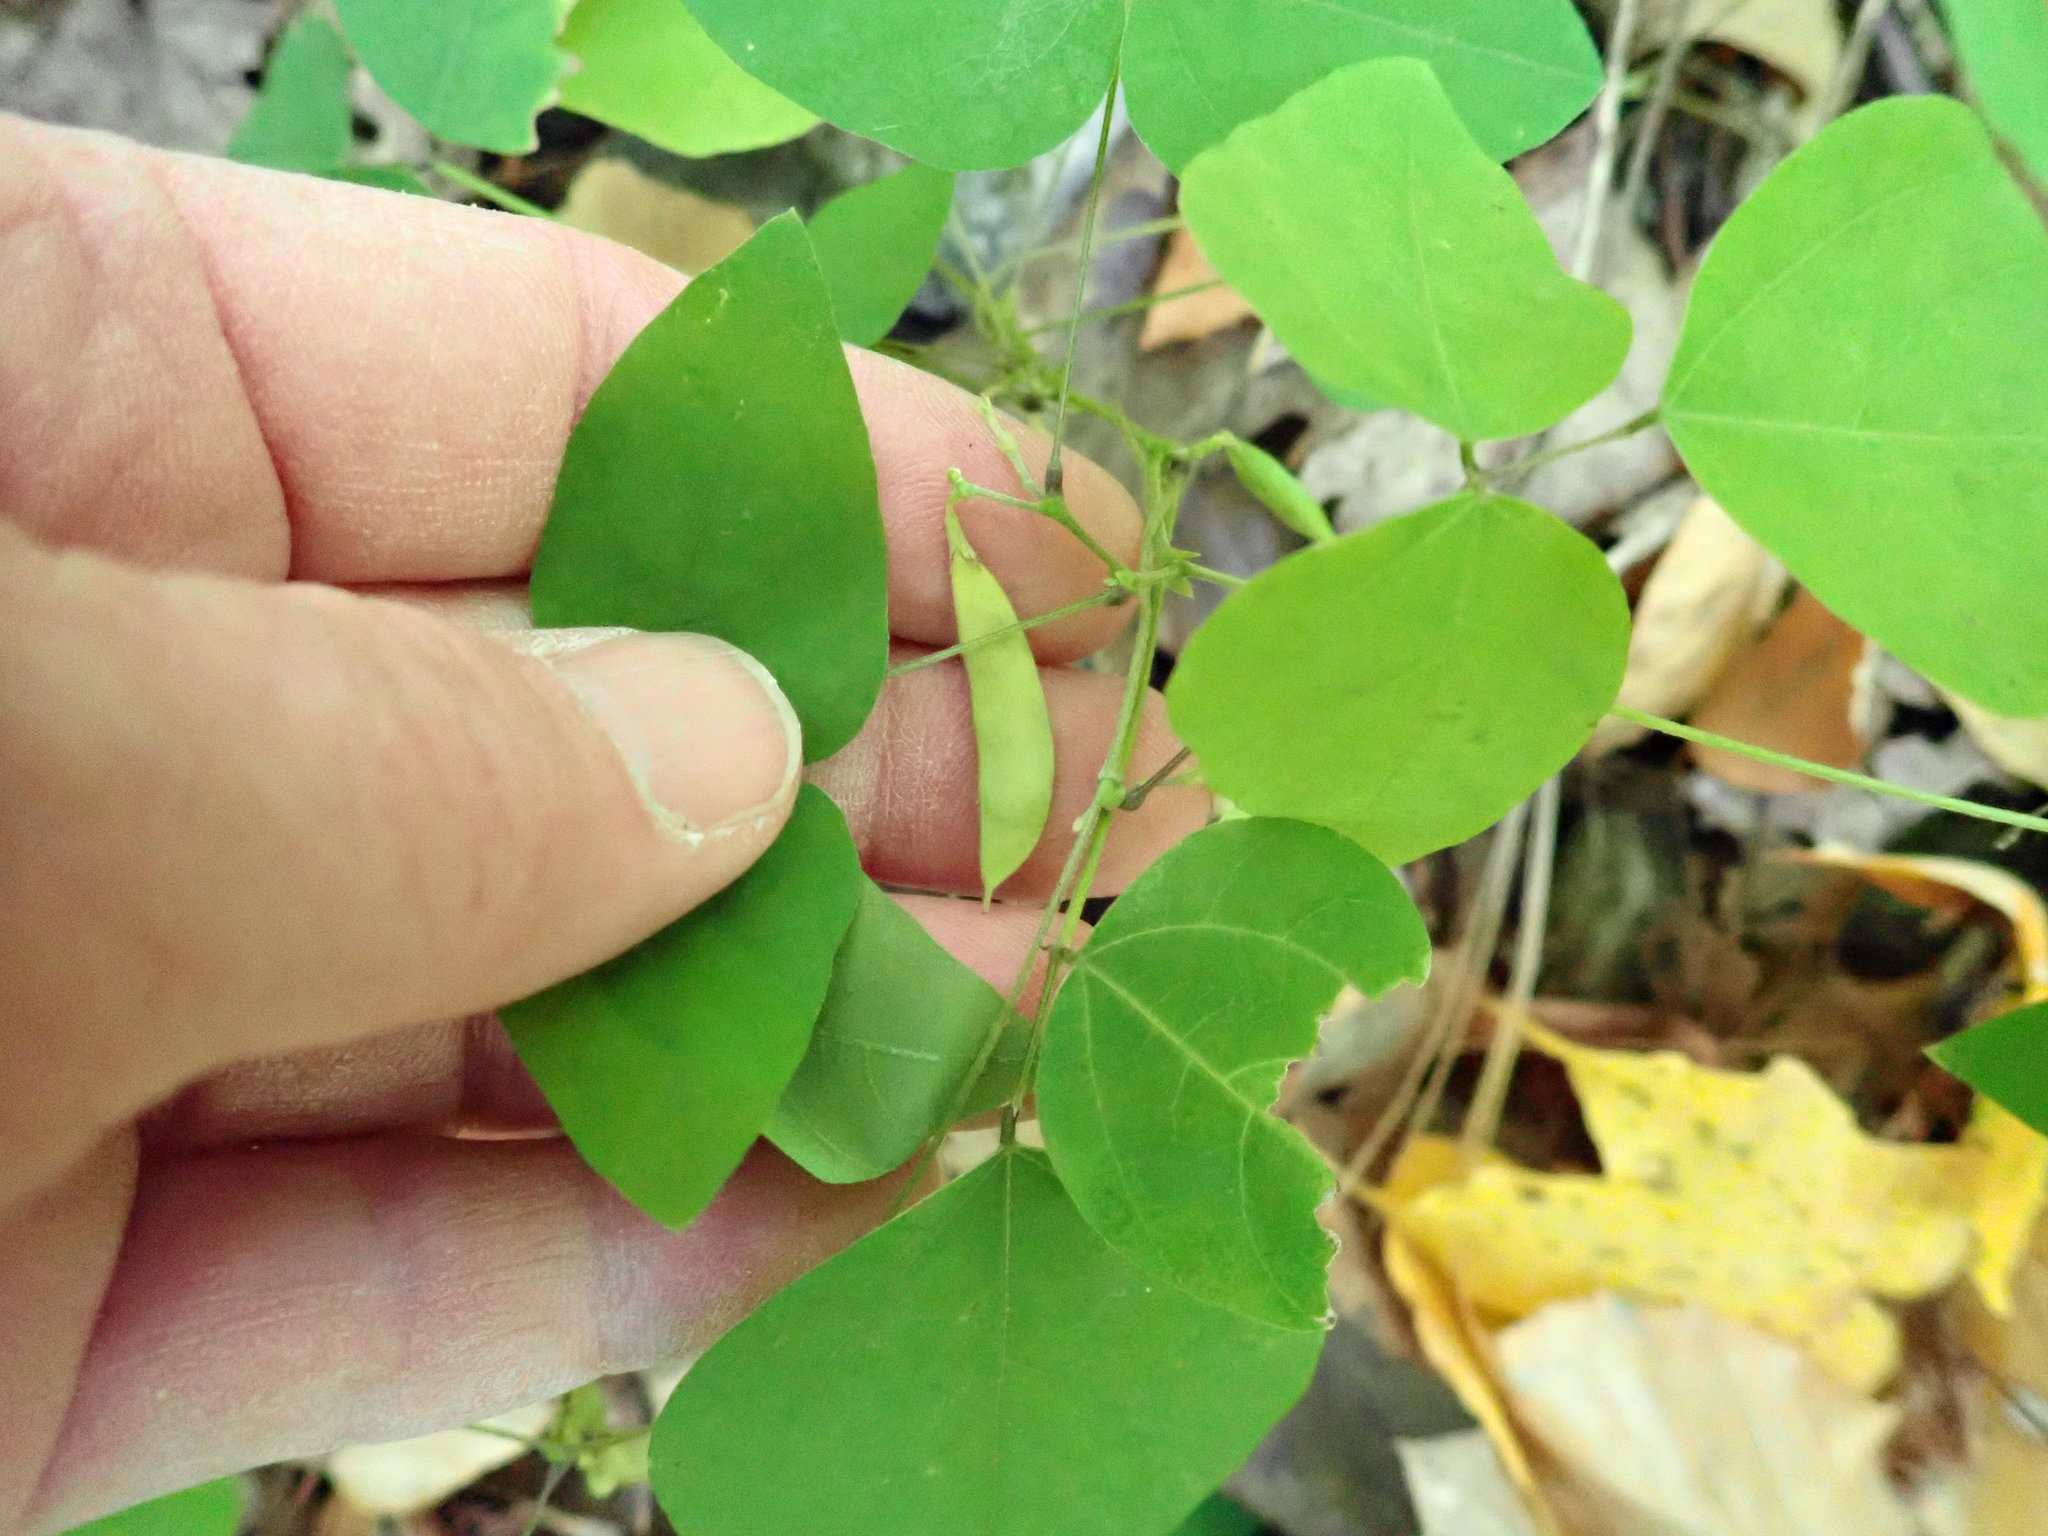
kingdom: Plantae
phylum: Tracheophyta
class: Magnoliopsida
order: Fabales
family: Fabaceae
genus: Amphicarpaea
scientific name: Amphicarpaea bracteata
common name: American hog peanut
